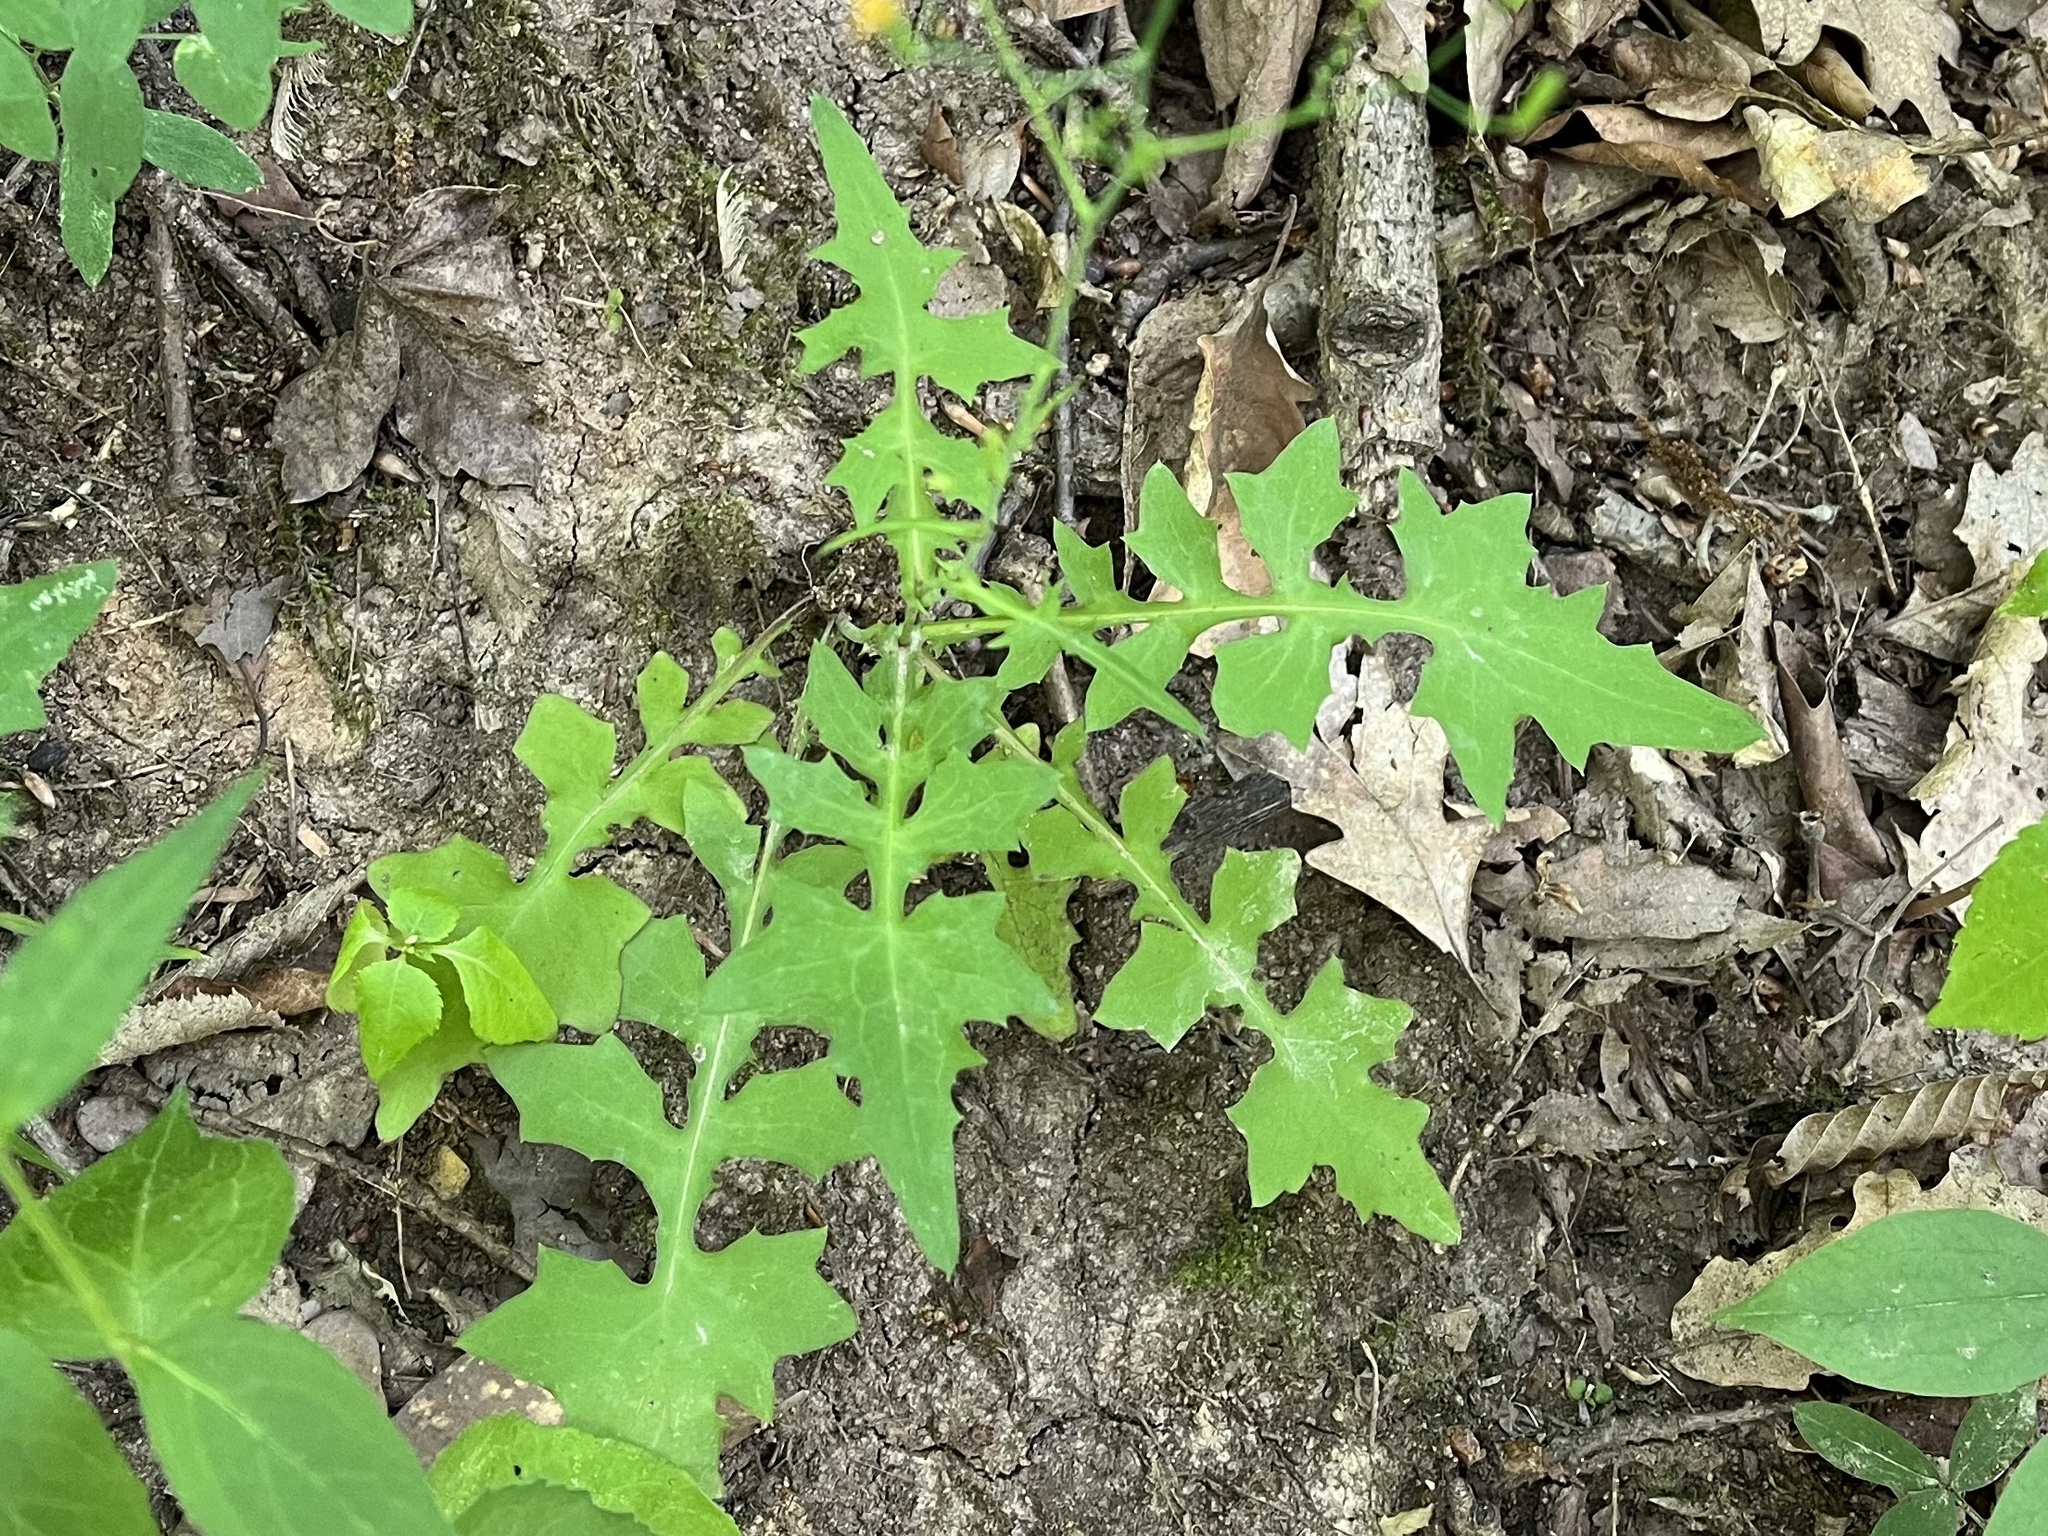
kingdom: Plantae
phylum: Tracheophyta
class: Magnoliopsida
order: Asterales
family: Asteraceae
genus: Mycelis
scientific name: Mycelis muralis
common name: Wall lettuce
